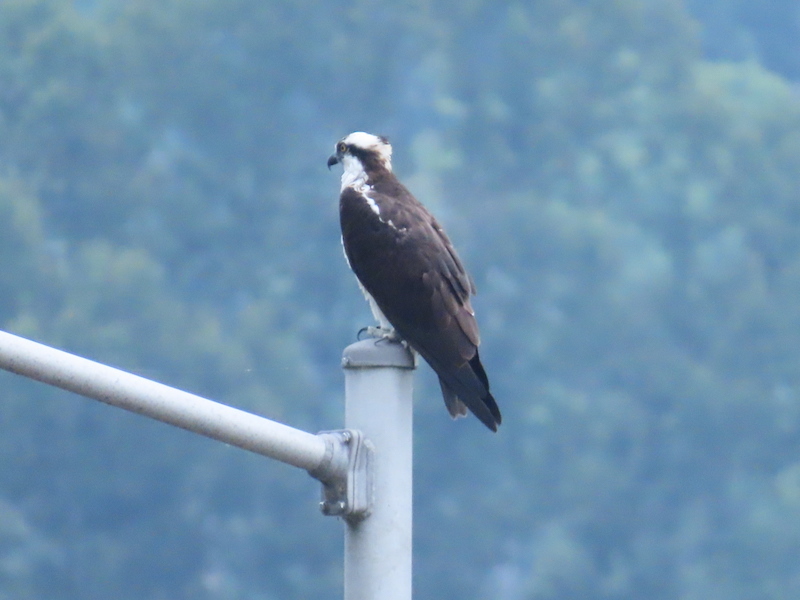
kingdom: Animalia
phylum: Chordata
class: Aves
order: Accipitriformes
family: Pandionidae
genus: Pandion
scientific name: Pandion haliaetus
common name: Osprey
